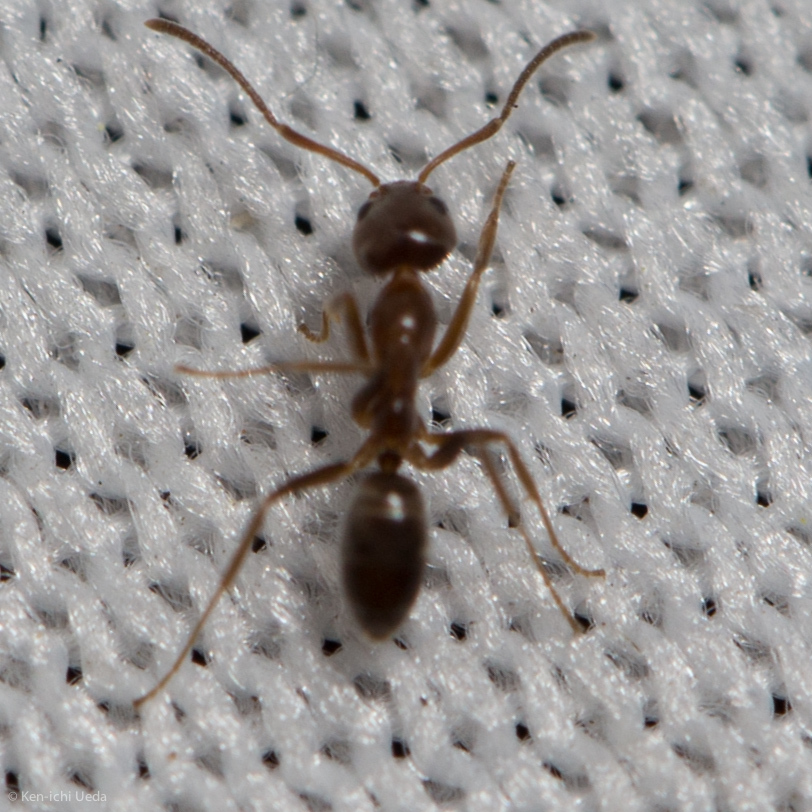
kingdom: Animalia
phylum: Arthropoda
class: Insecta
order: Hymenoptera
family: Formicidae
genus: Linepithema
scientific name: Linepithema humile
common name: Argentine ant
